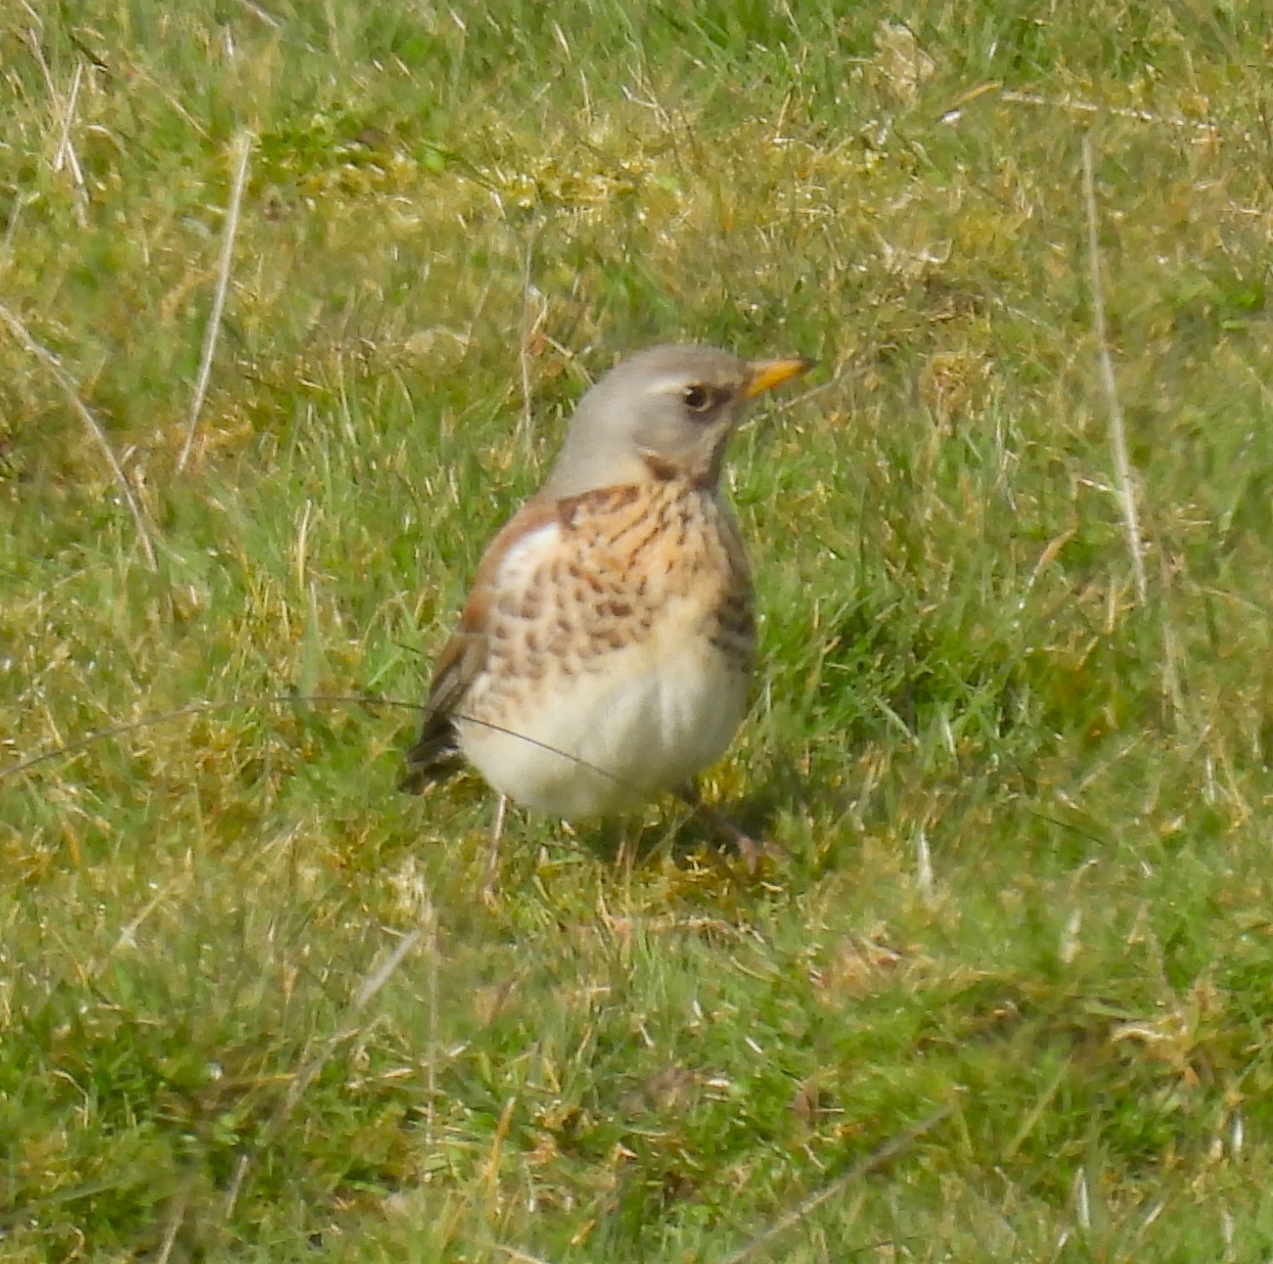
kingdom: Animalia
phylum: Chordata
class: Aves
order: Passeriformes
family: Turdidae
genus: Turdus
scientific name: Turdus pilaris
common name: Fieldfare
